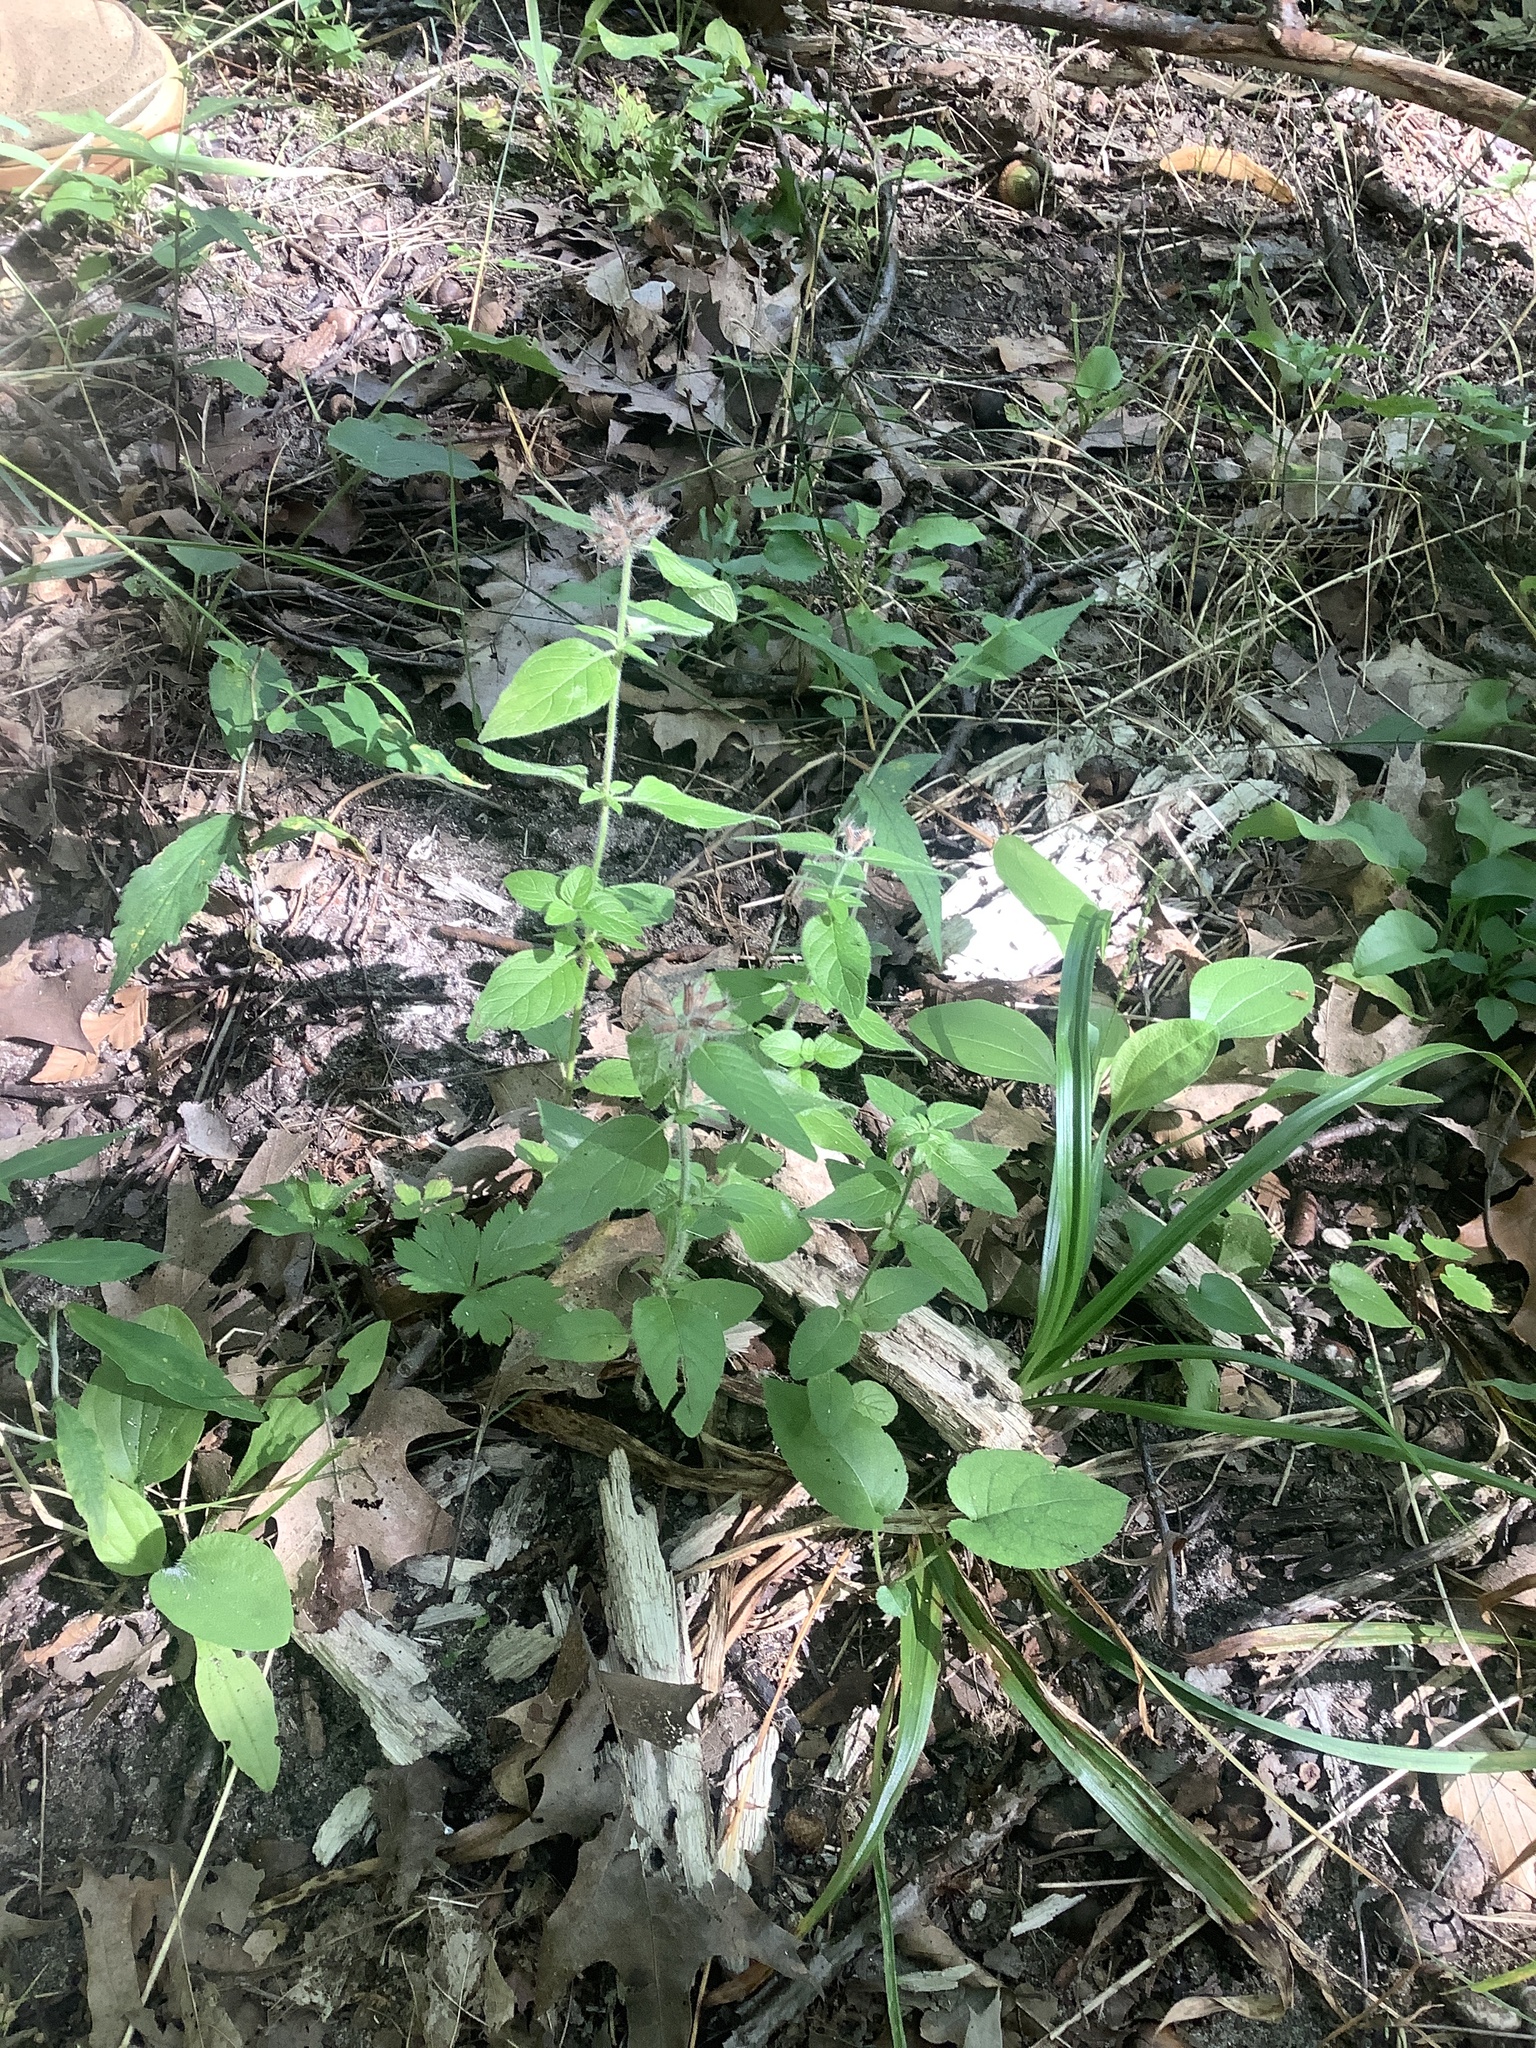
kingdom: Plantae
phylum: Tracheophyta
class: Magnoliopsida
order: Lamiales
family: Lamiaceae
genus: Clinopodium
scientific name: Clinopodium vulgare
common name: Wild basil
